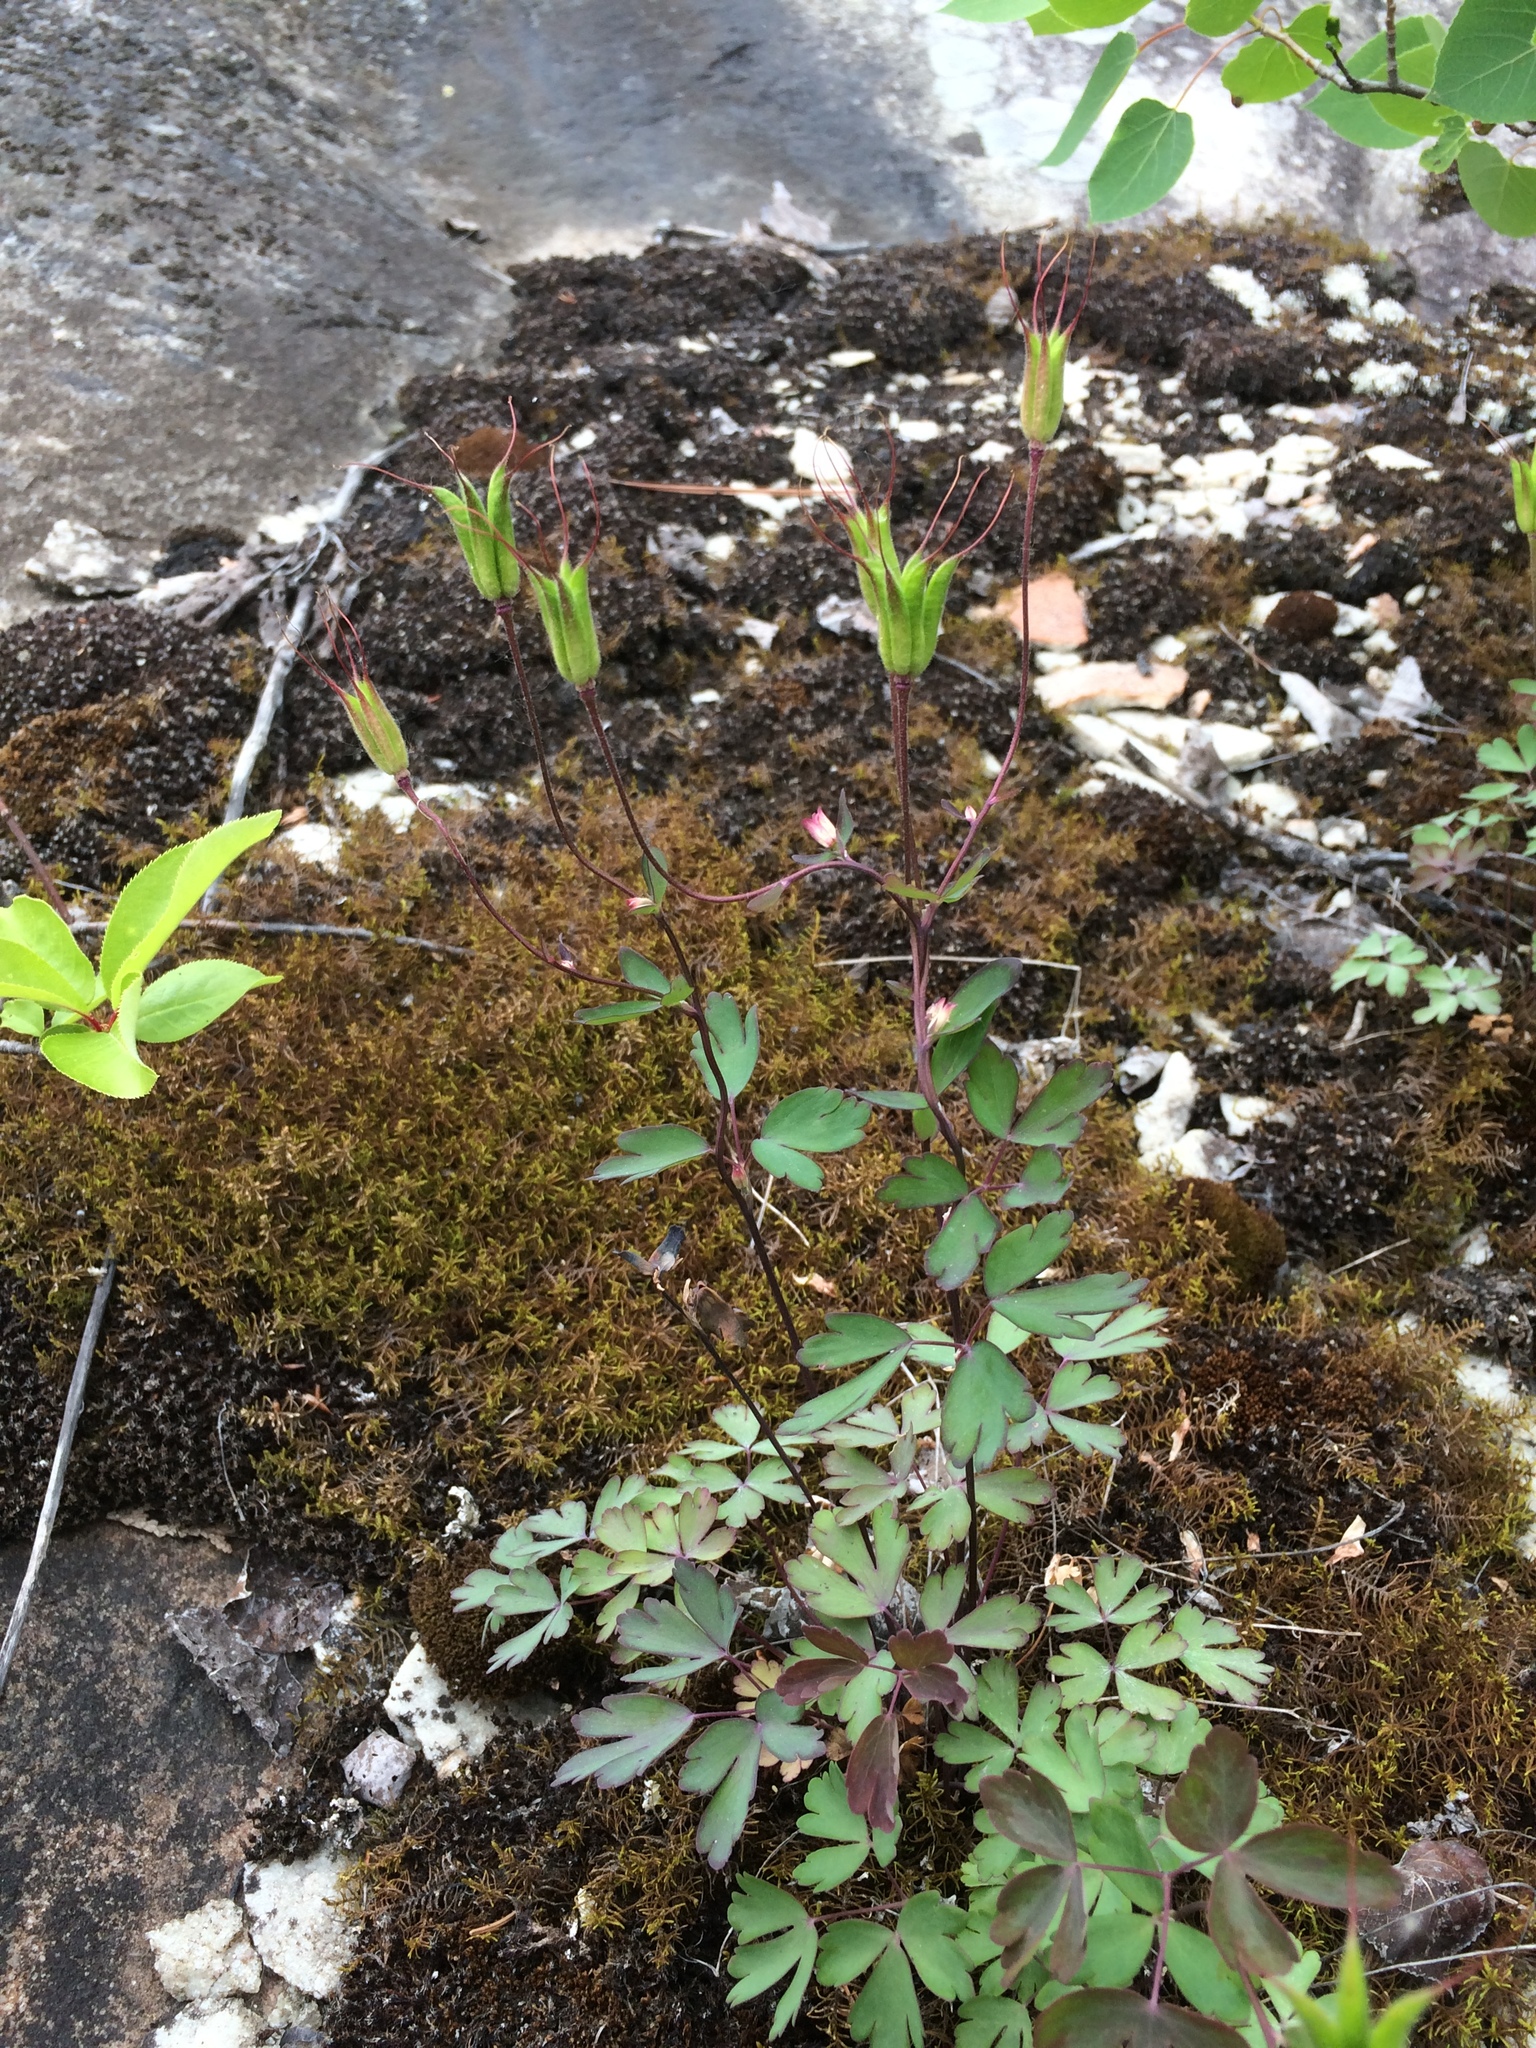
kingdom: Plantae
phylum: Tracheophyta
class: Magnoliopsida
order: Ranunculales
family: Ranunculaceae
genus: Aquilegia
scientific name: Aquilegia canadensis
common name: American columbine
